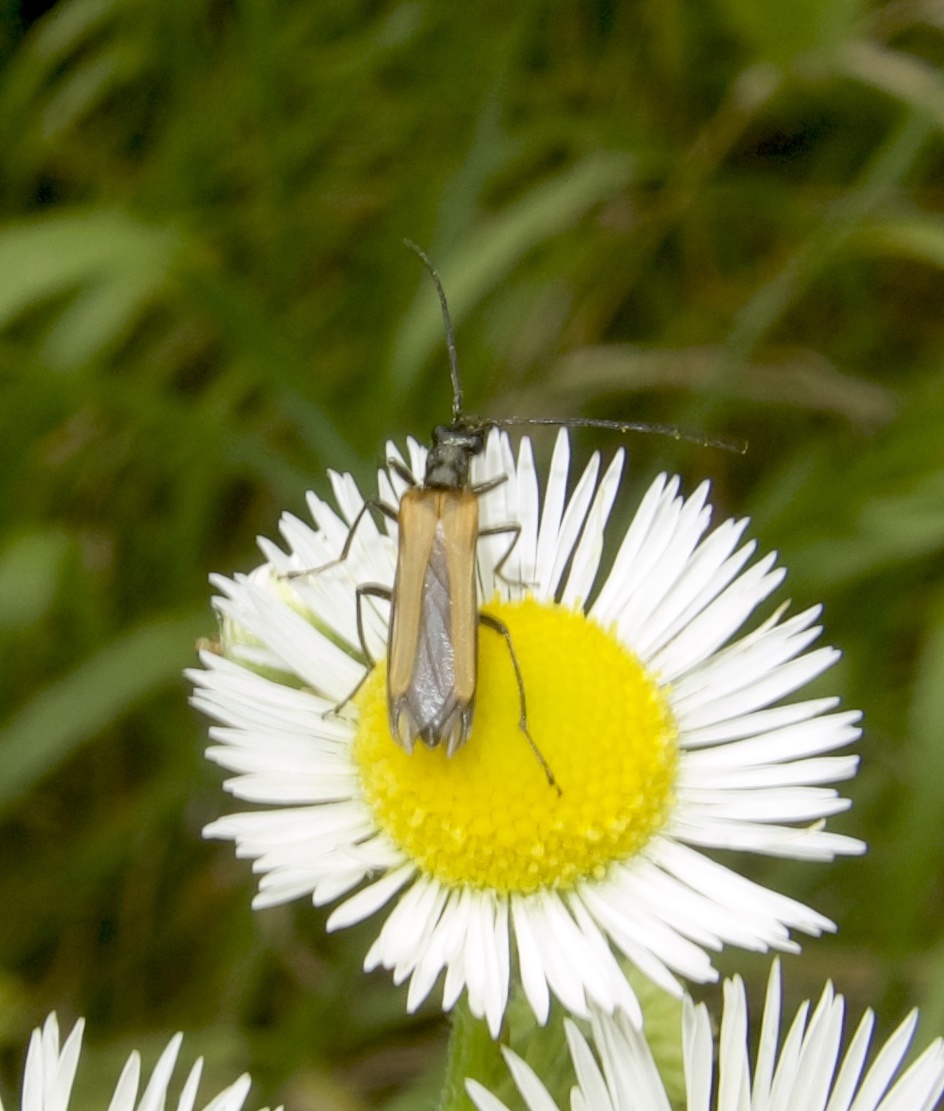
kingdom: Animalia
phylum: Arthropoda
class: Insecta
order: Coleoptera
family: Oedemeridae
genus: Oedemera
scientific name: Oedemera femorata
